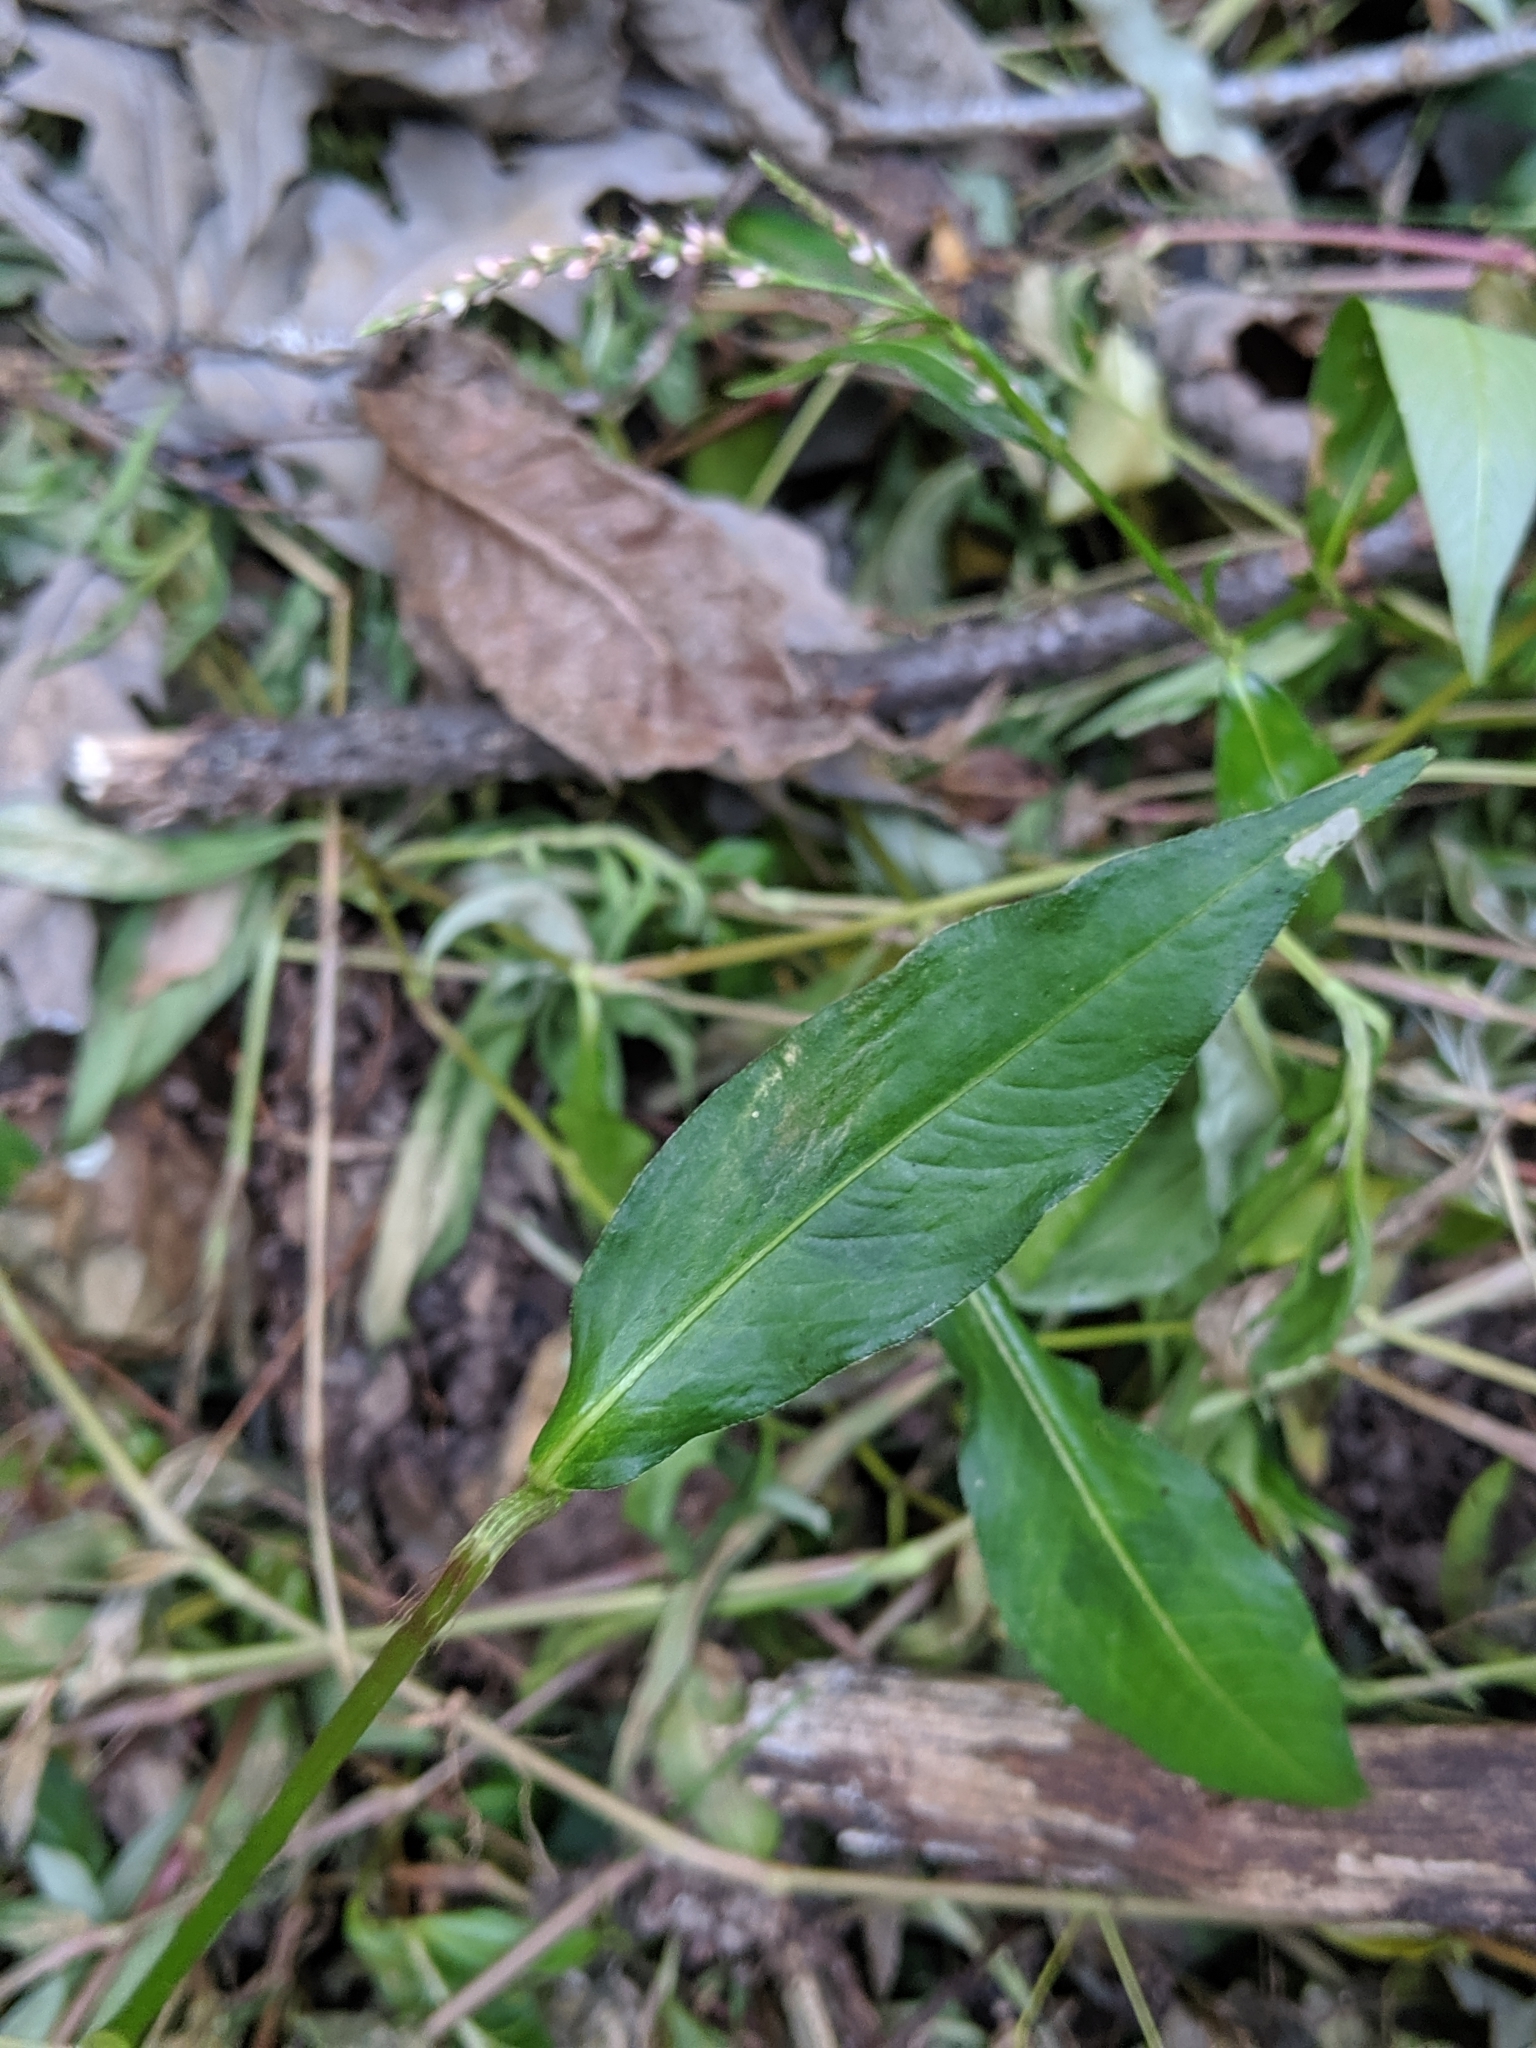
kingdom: Plantae
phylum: Tracheophyta
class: Magnoliopsida
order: Caryophyllales
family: Polygonaceae
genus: Persicaria
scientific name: Persicaria longiseta
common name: Bristly lady's-thumb
